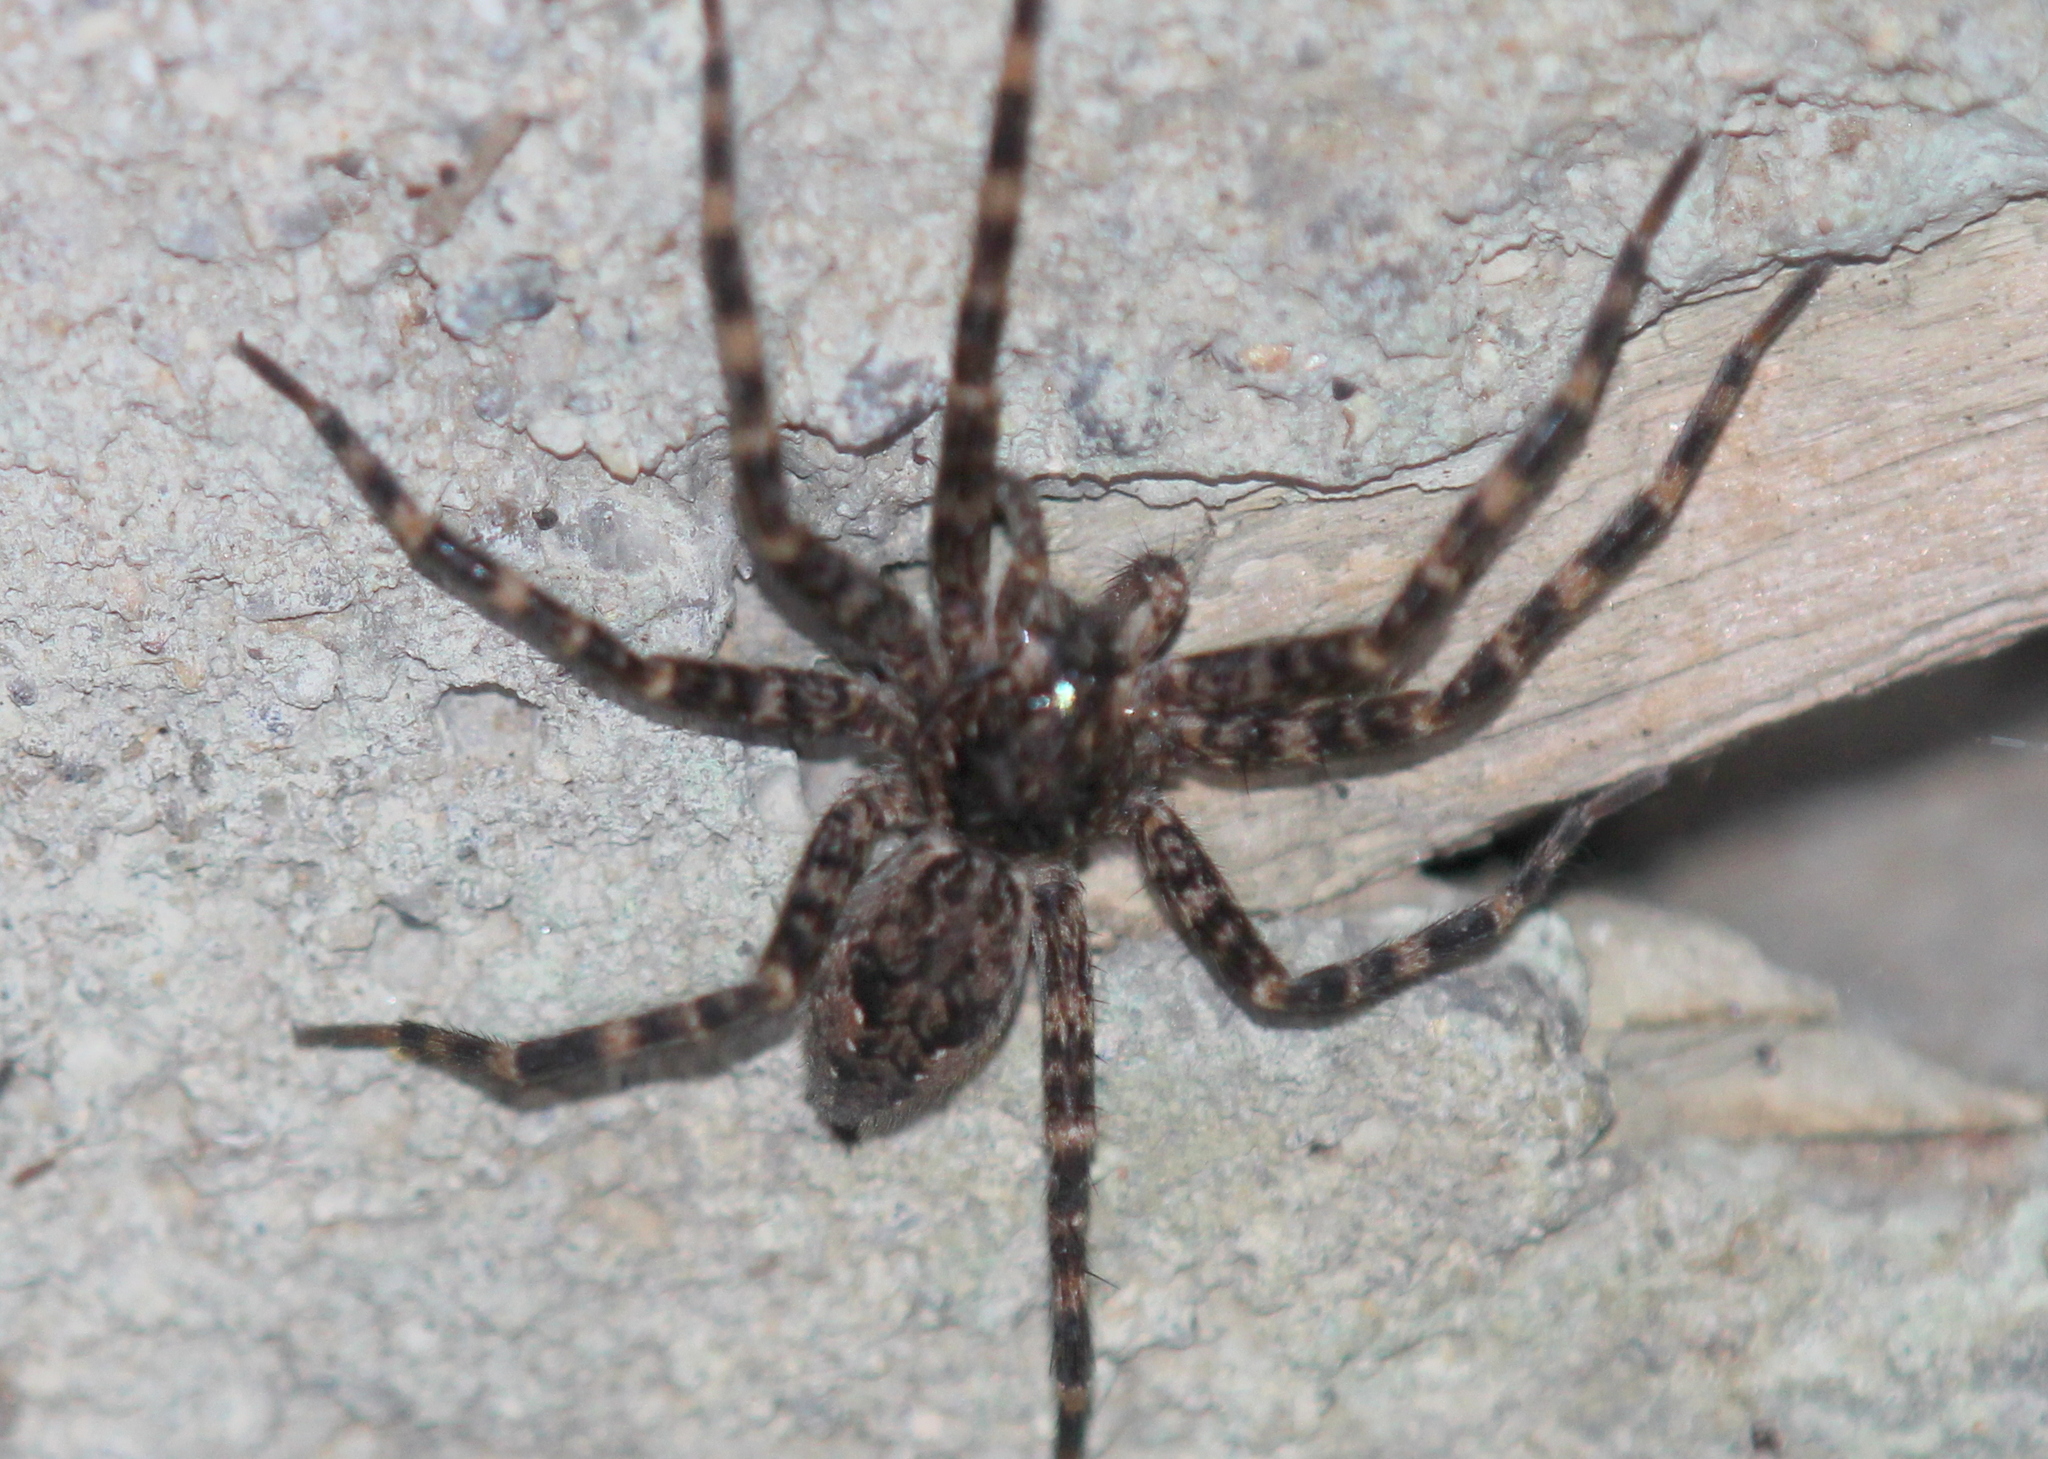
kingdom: Animalia
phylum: Arthropoda
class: Arachnida
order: Araneae
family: Pisauridae
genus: Dolomedes
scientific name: Dolomedes tenebrosus
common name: Dark fishing spider
